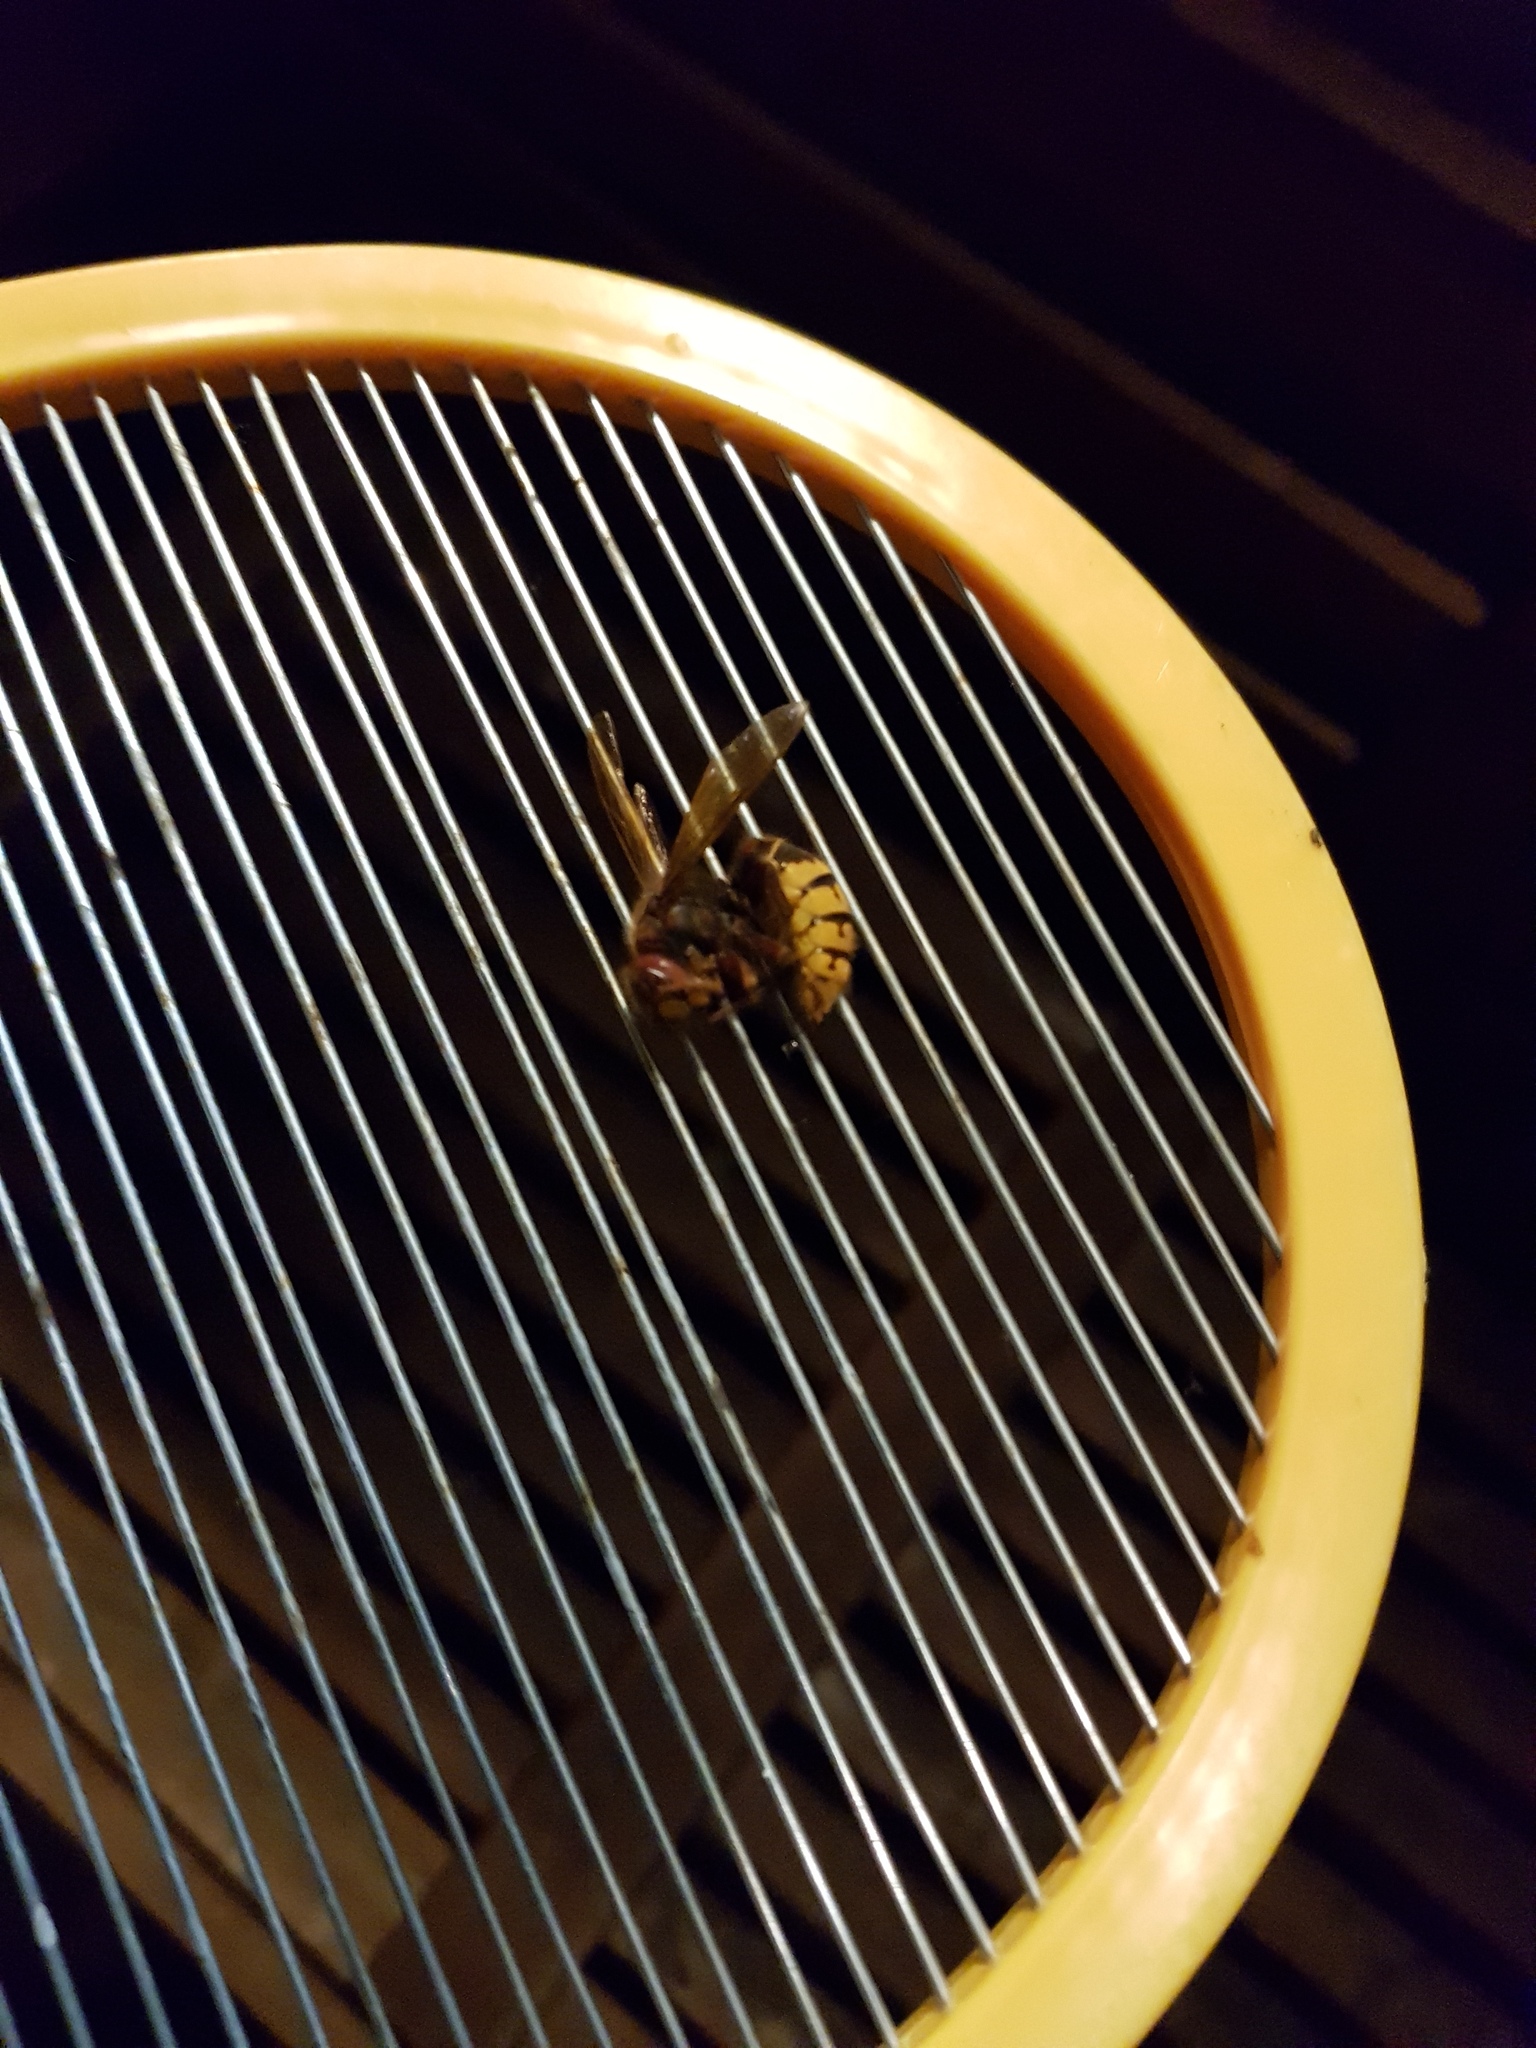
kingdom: Animalia
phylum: Arthropoda
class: Insecta
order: Hymenoptera
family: Vespidae
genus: Vespa
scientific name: Vespa crabro
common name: Hornet
